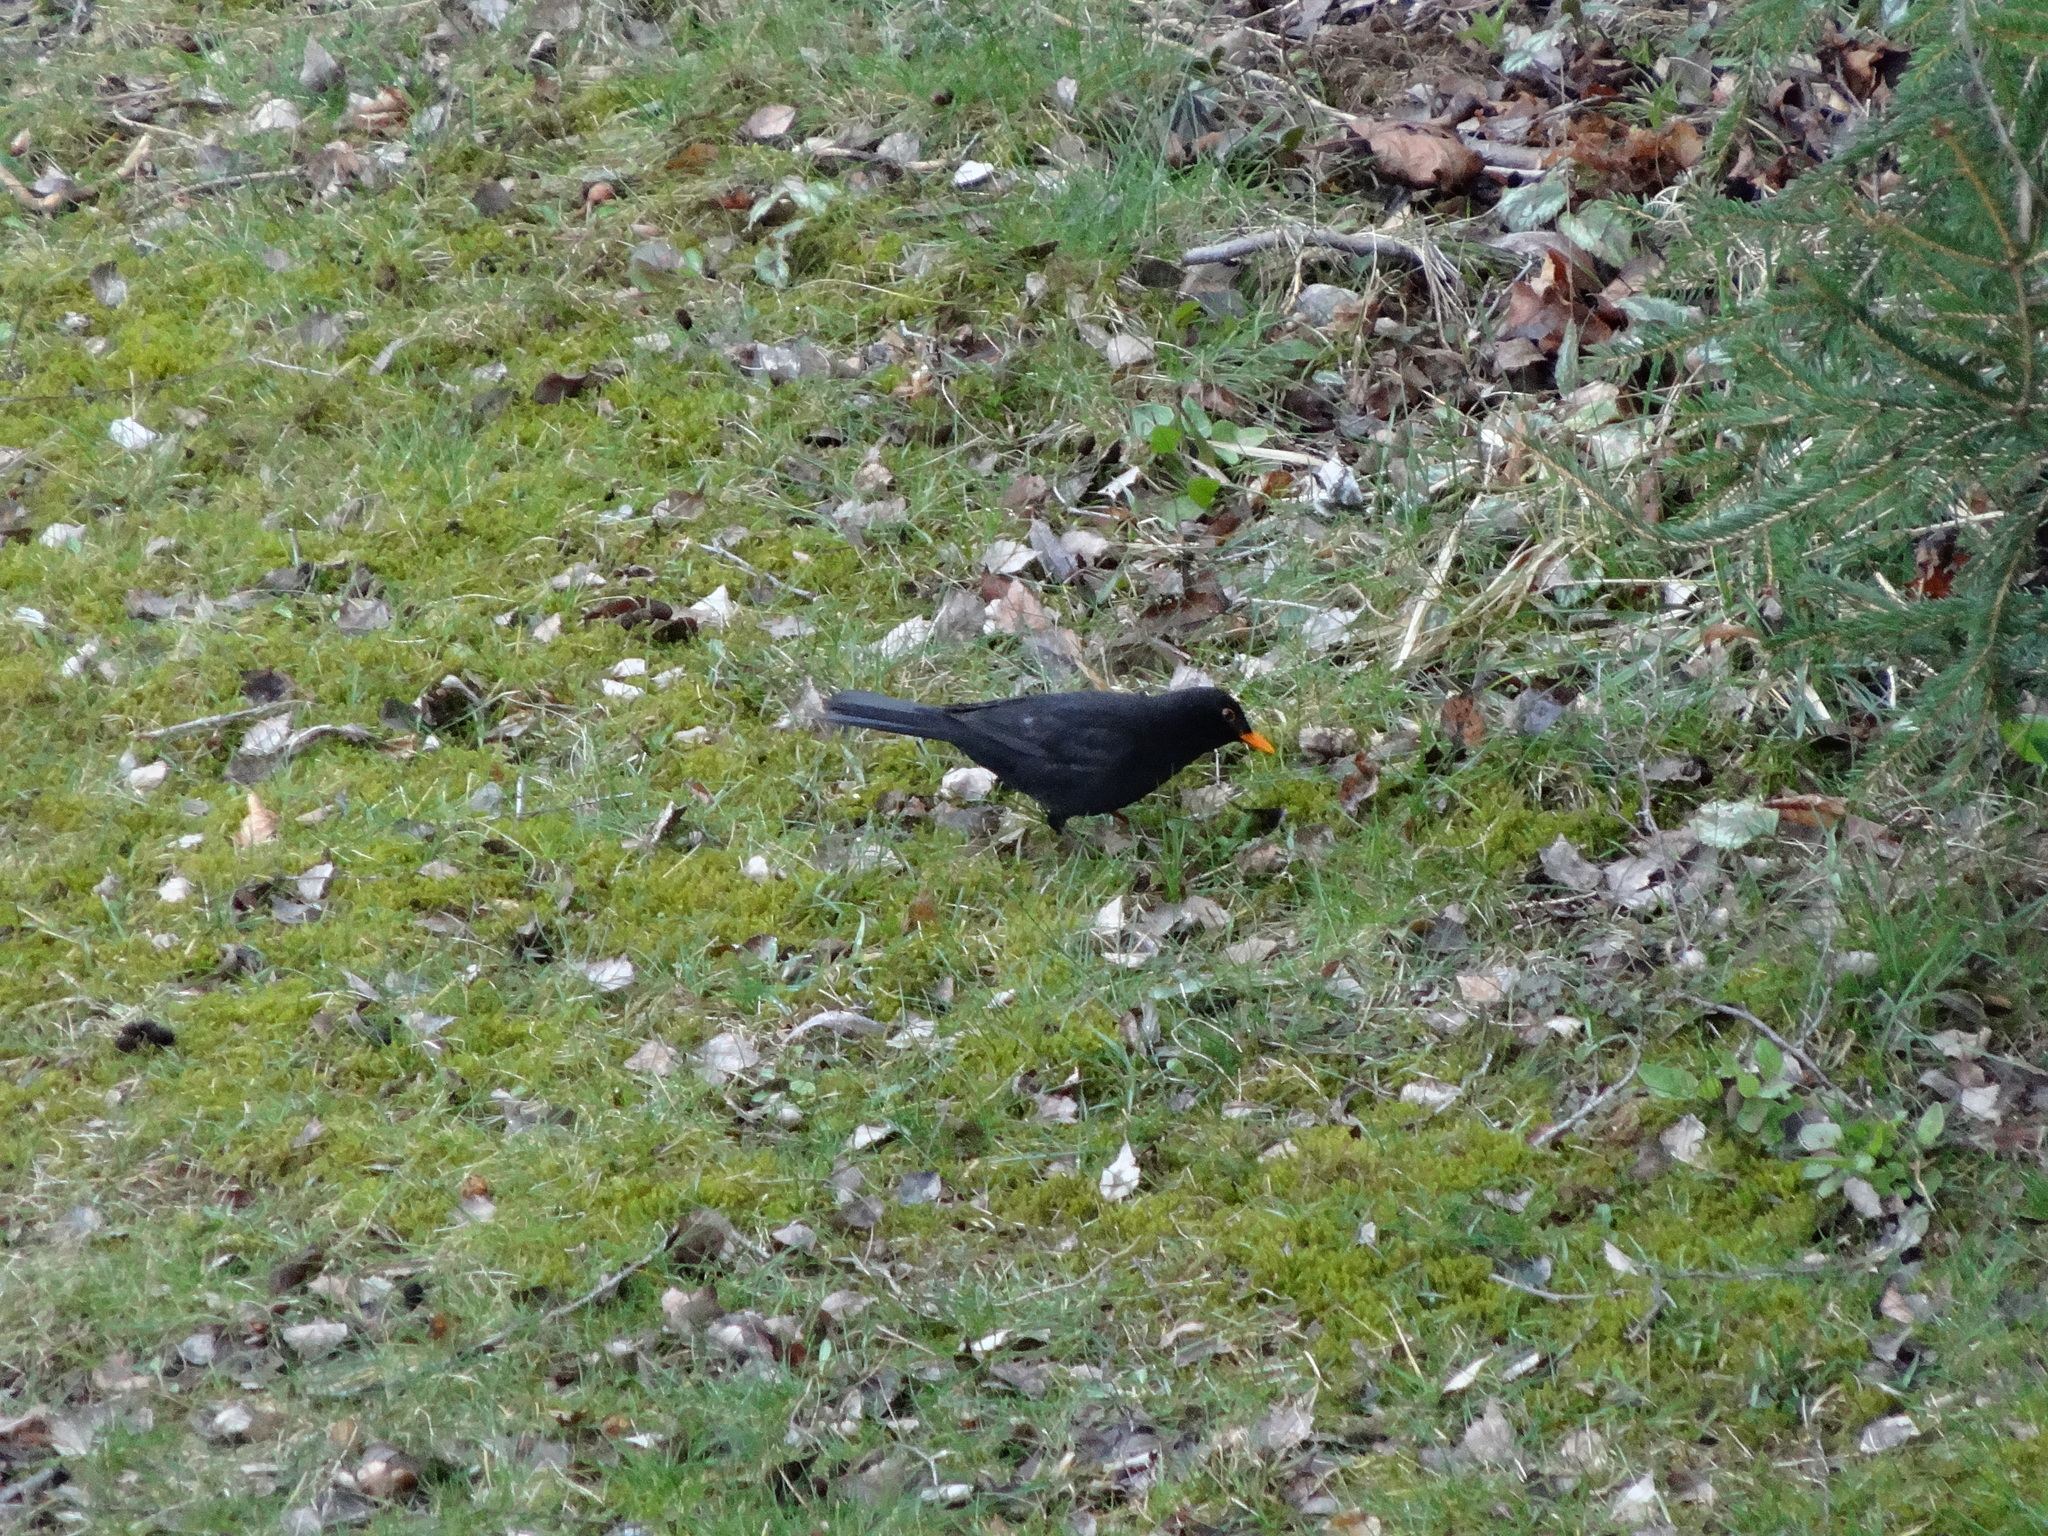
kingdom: Animalia
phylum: Chordata
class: Aves
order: Passeriformes
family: Turdidae
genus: Turdus
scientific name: Turdus merula
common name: Common blackbird
